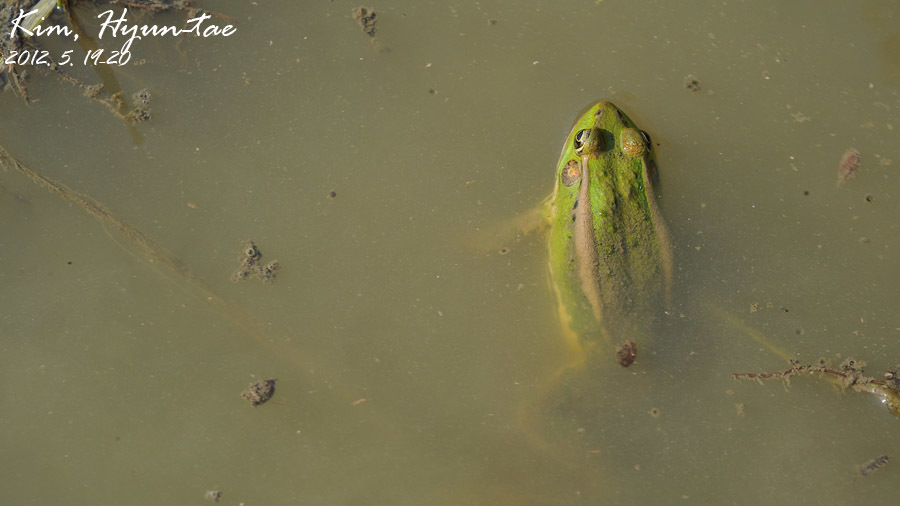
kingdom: Animalia
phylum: Chordata
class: Amphibia
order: Anura
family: Ranidae
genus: Pelophylax
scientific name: Pelophylax chosenicus
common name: Gold-spotted pond frog
